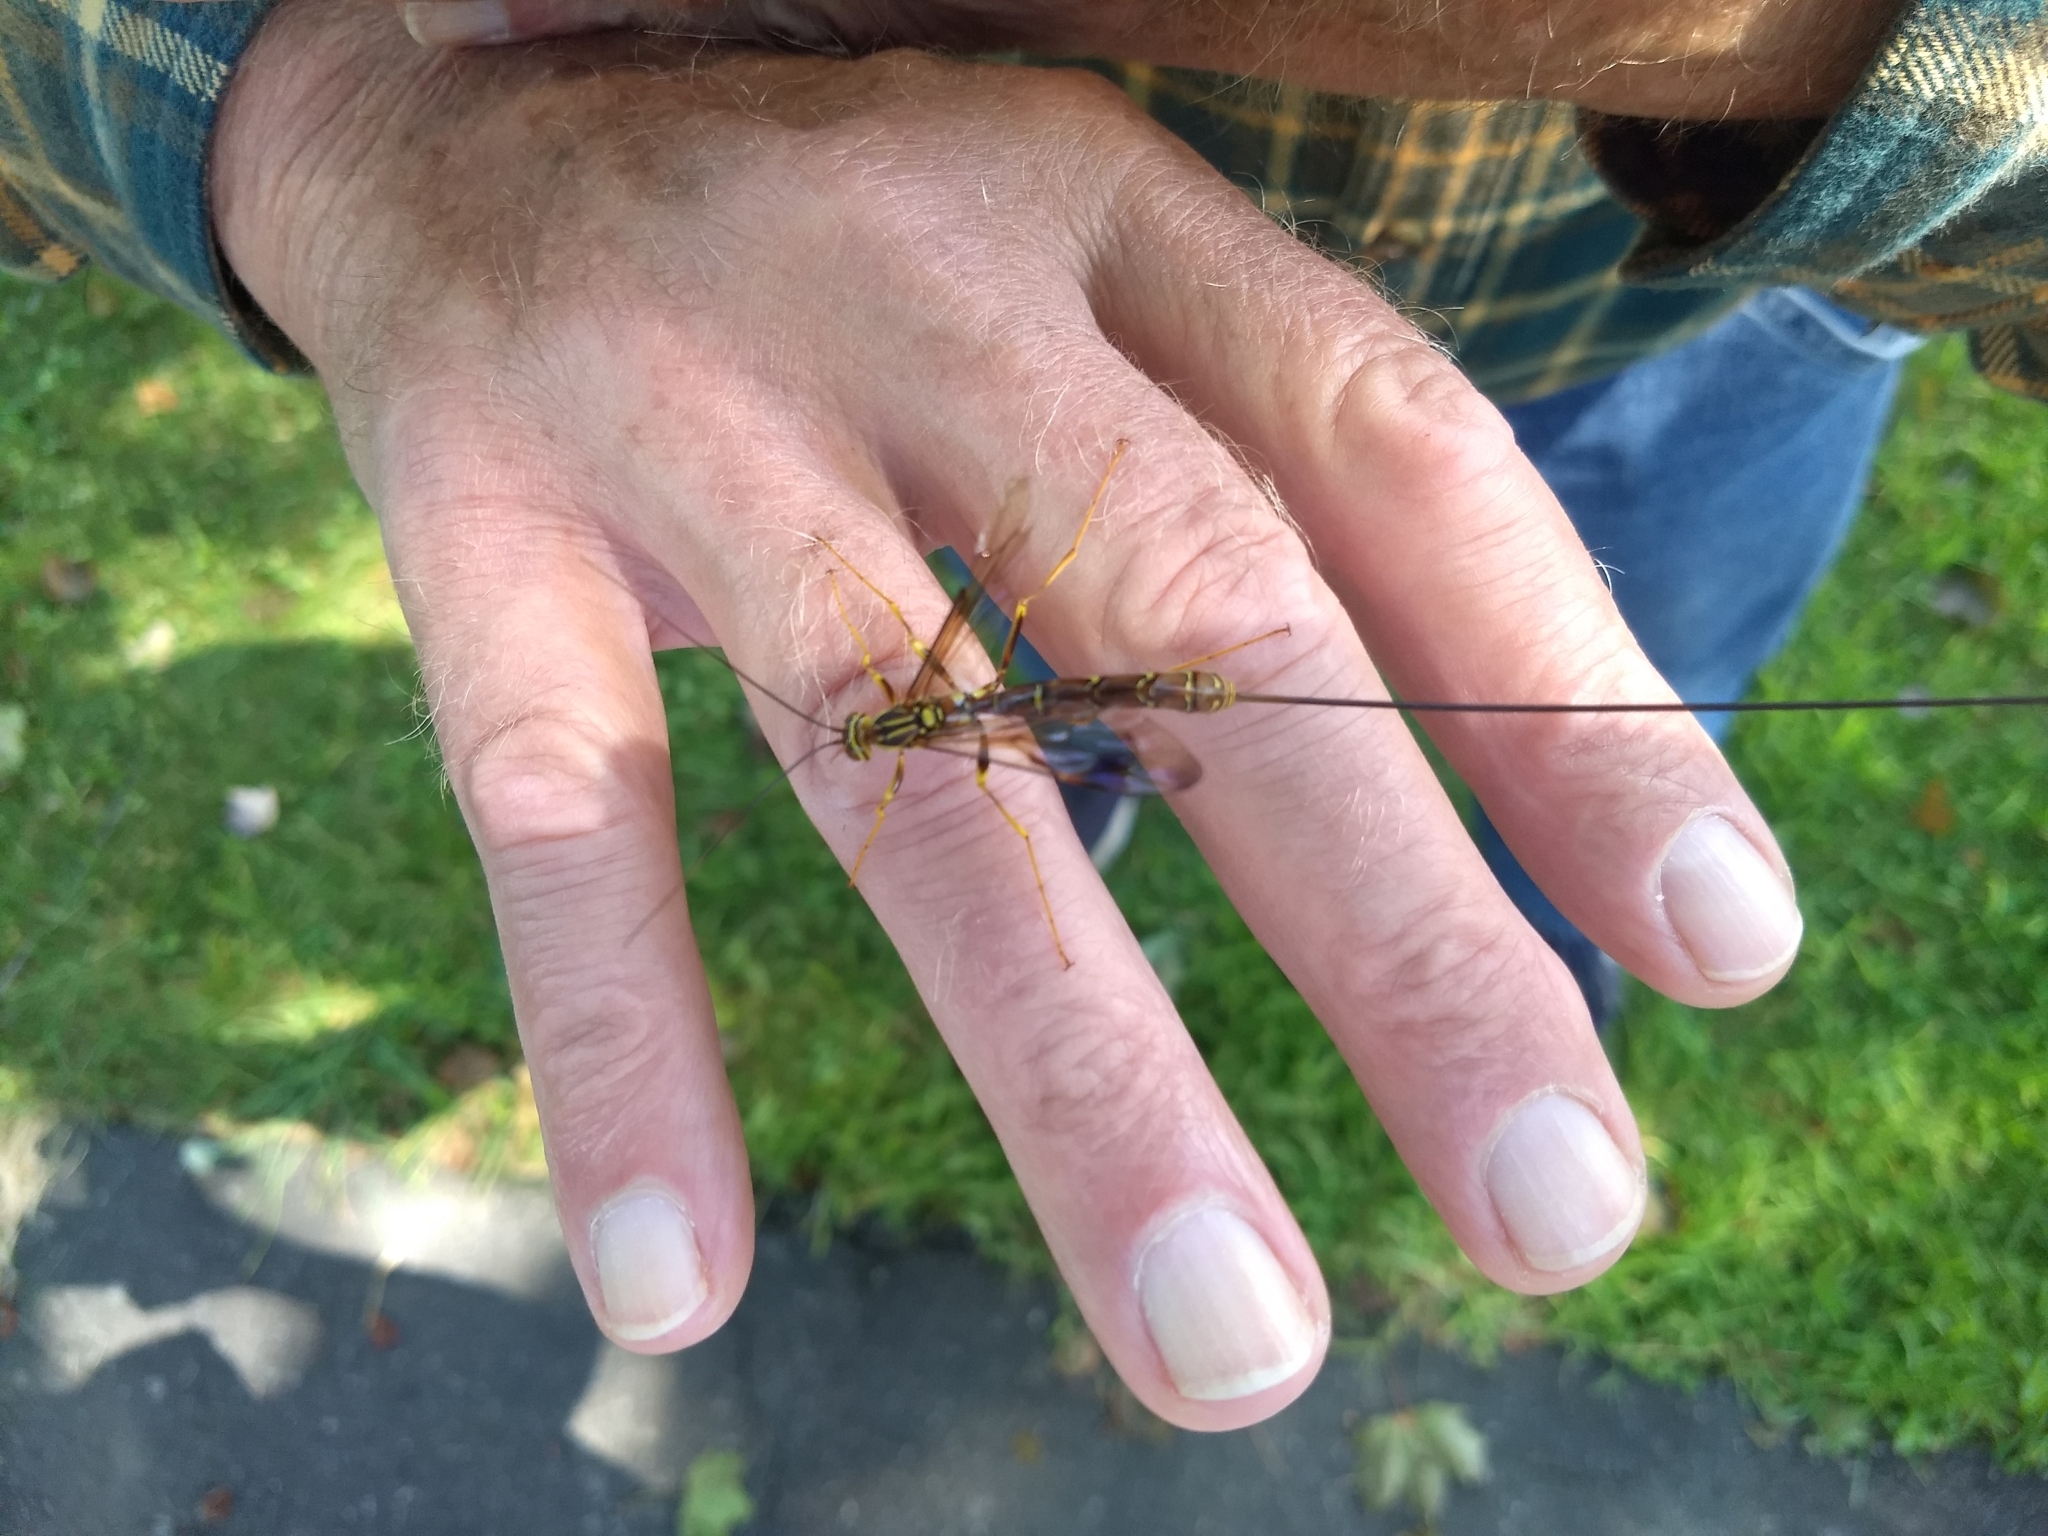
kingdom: Animalia
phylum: Arthropoda
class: Insecta
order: Hymenoptera
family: Ichneumonidae
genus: Megarhyssa
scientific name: Megarhyssa macrura
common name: Long-tailed giant ichneumonid wasp
